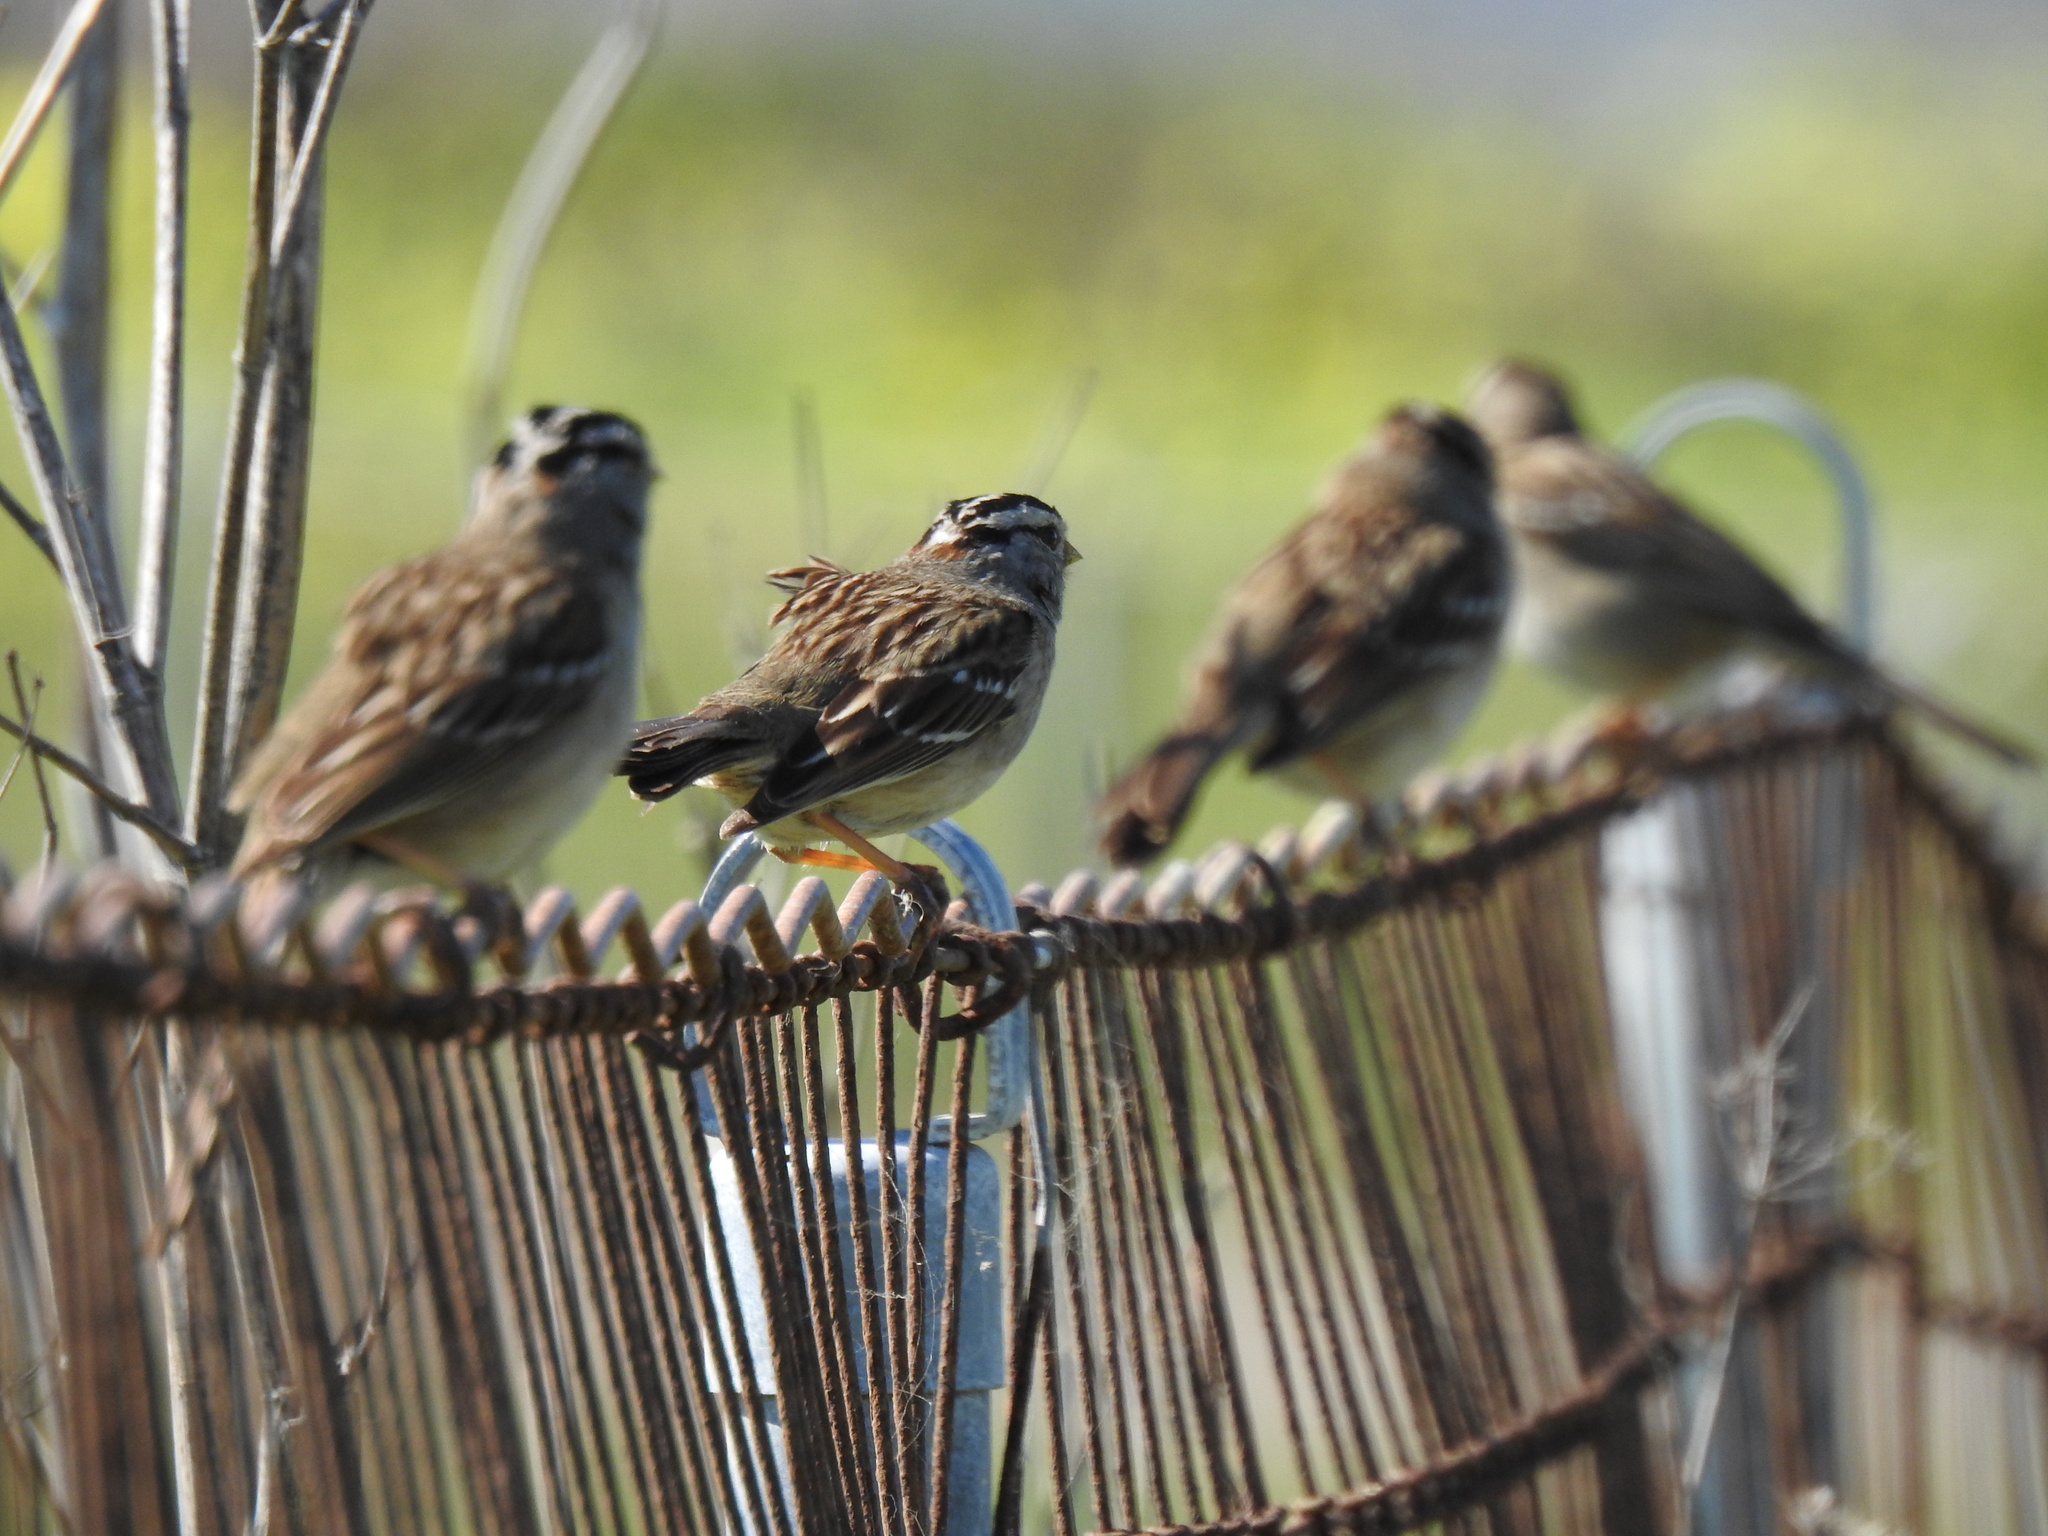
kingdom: Animalia
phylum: Chordata
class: Aves
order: Passeriformes
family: Passerellidae
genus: Zonotrichia
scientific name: Zonotrichia leucophrys
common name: White-crowned sparrow
